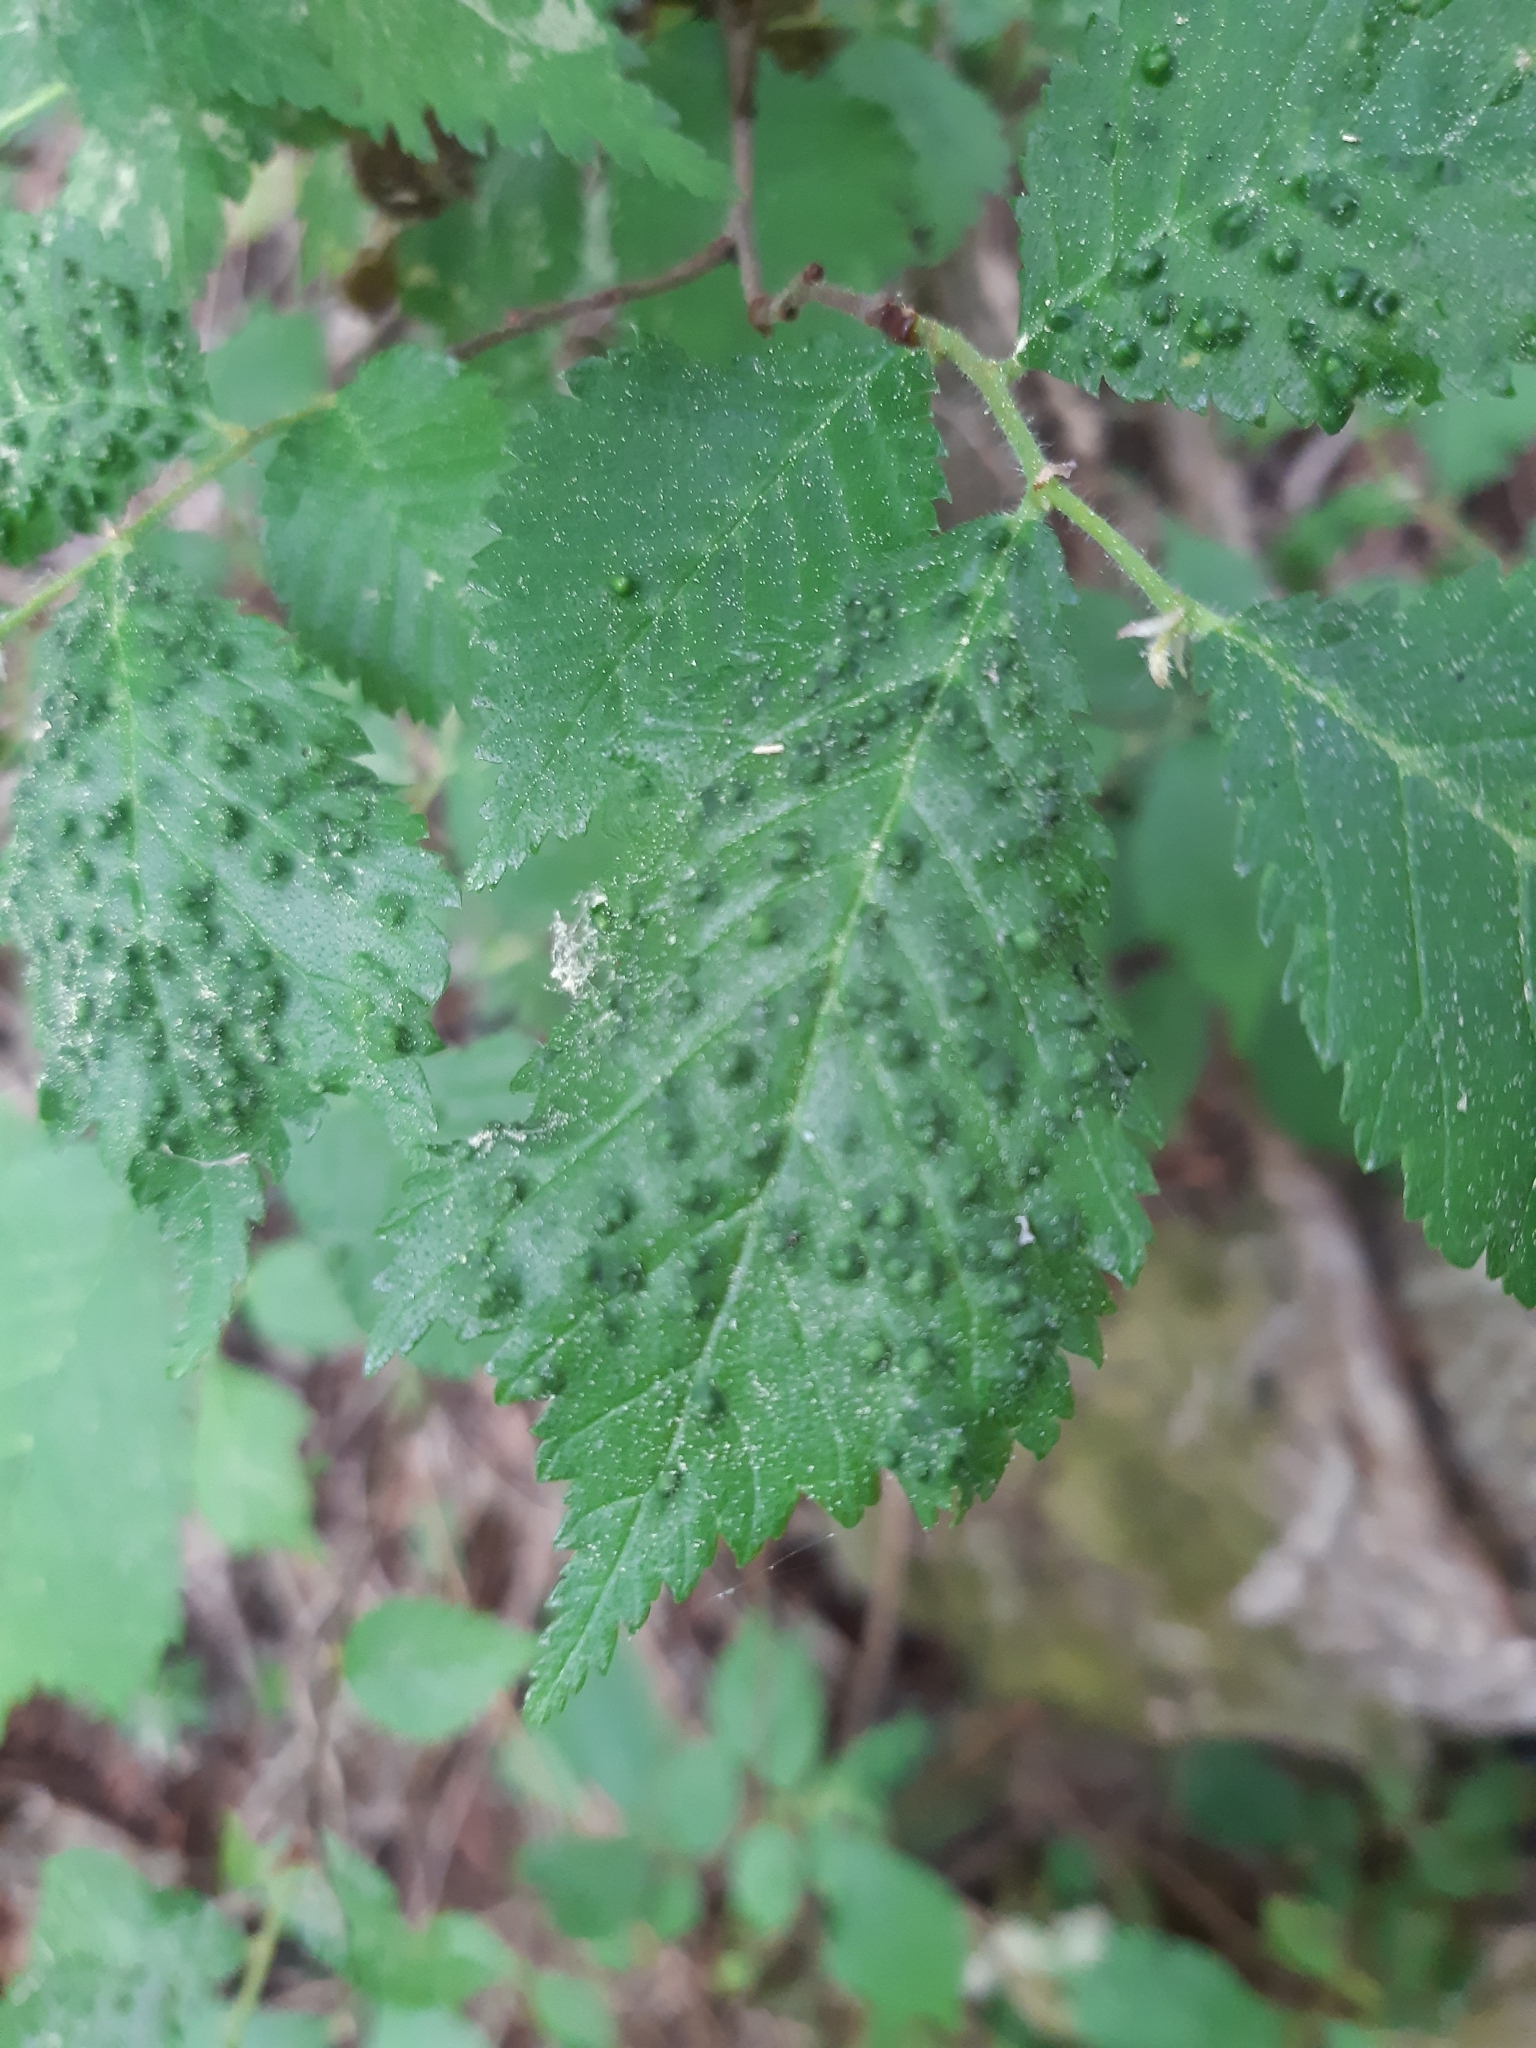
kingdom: Animalia
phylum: Arthropoda
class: Arachnida
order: Trombidiformes
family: Eriophyidae
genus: Aceria
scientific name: Aceria brevipunctata
